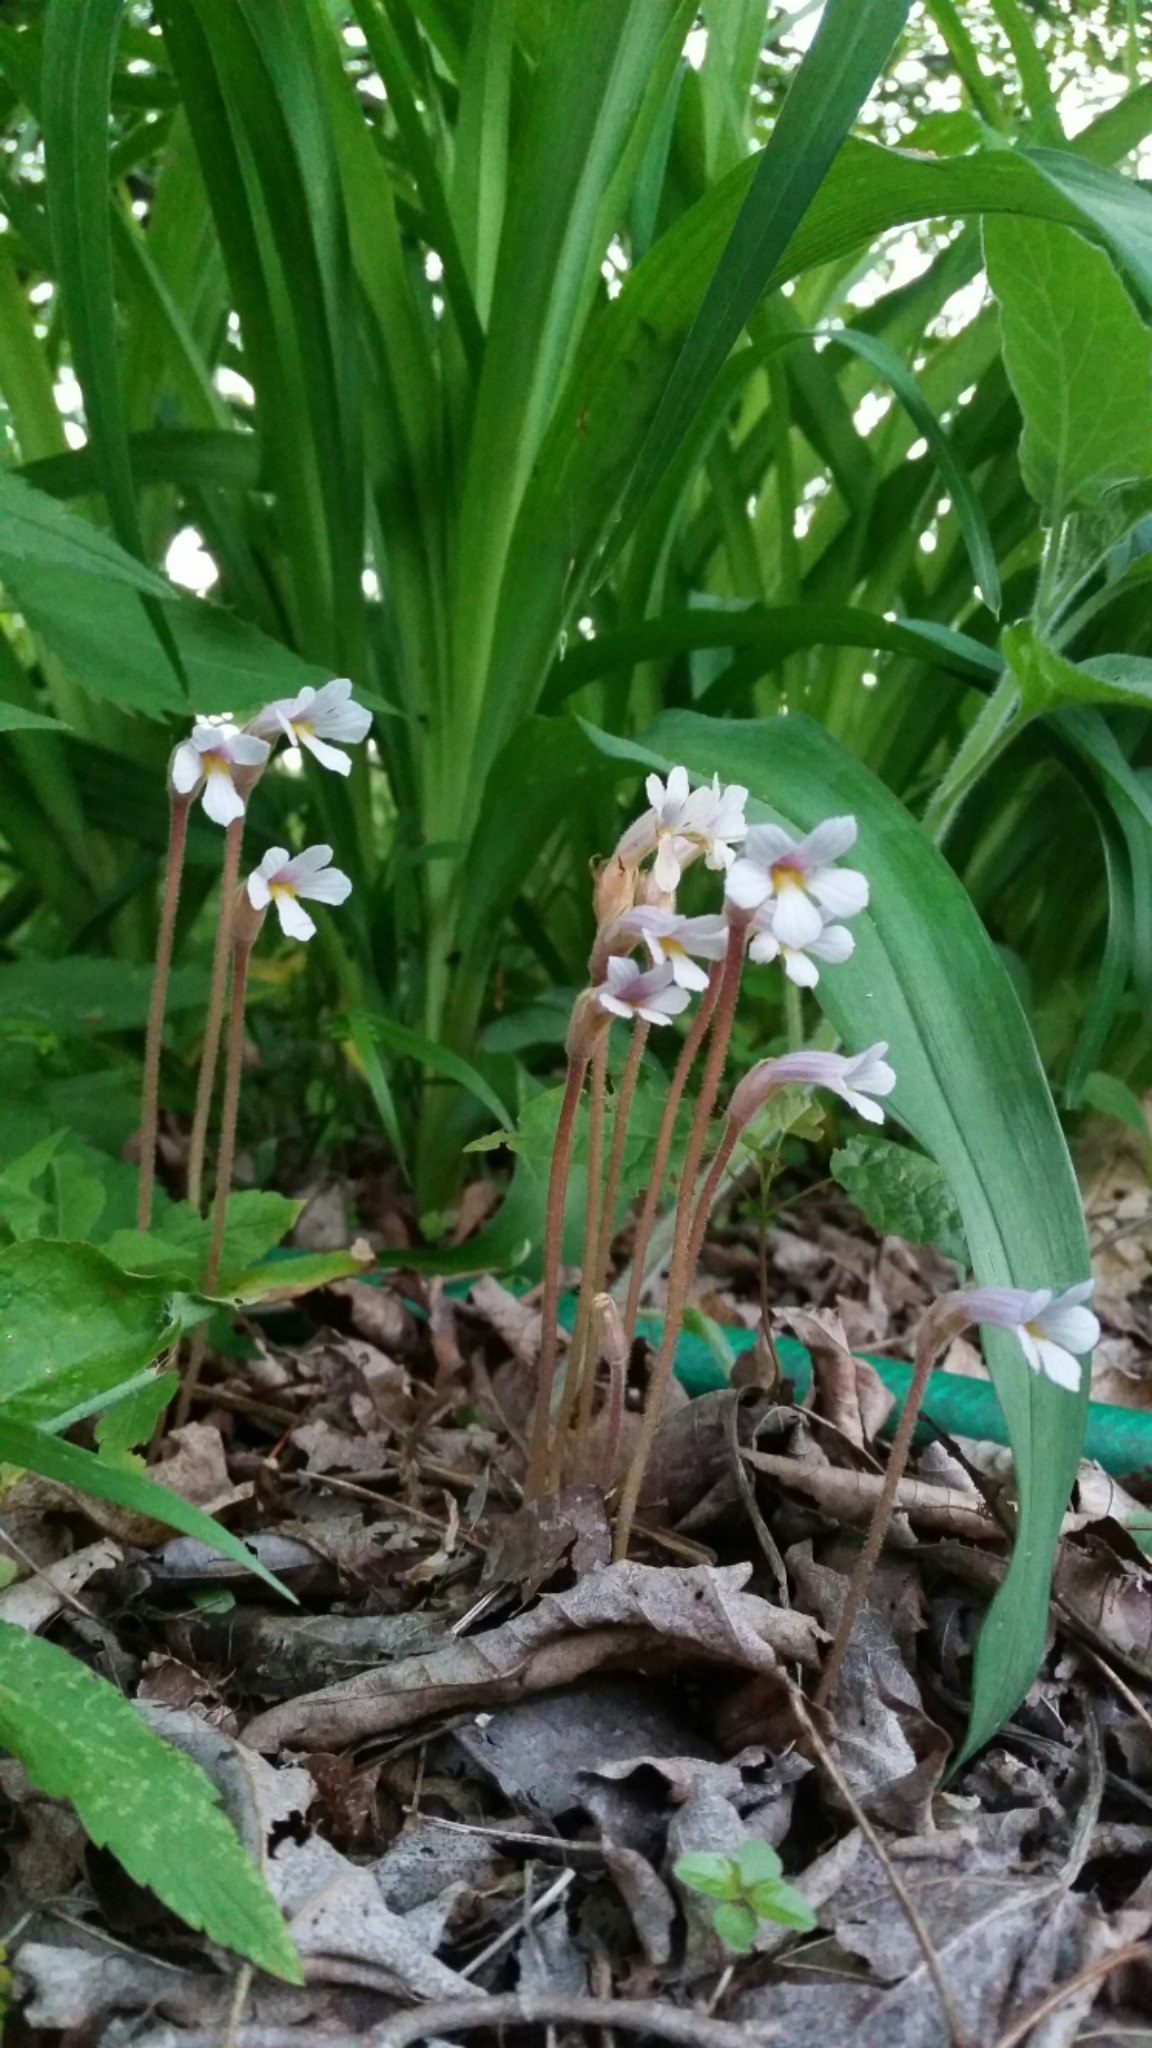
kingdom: Plantae
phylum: Tracheophyta
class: Magnoliopsida
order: Lamiales
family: Orobanchaceae
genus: Aphyllon
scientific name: Aphyllon uniflorum
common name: One-flowered broomrape
